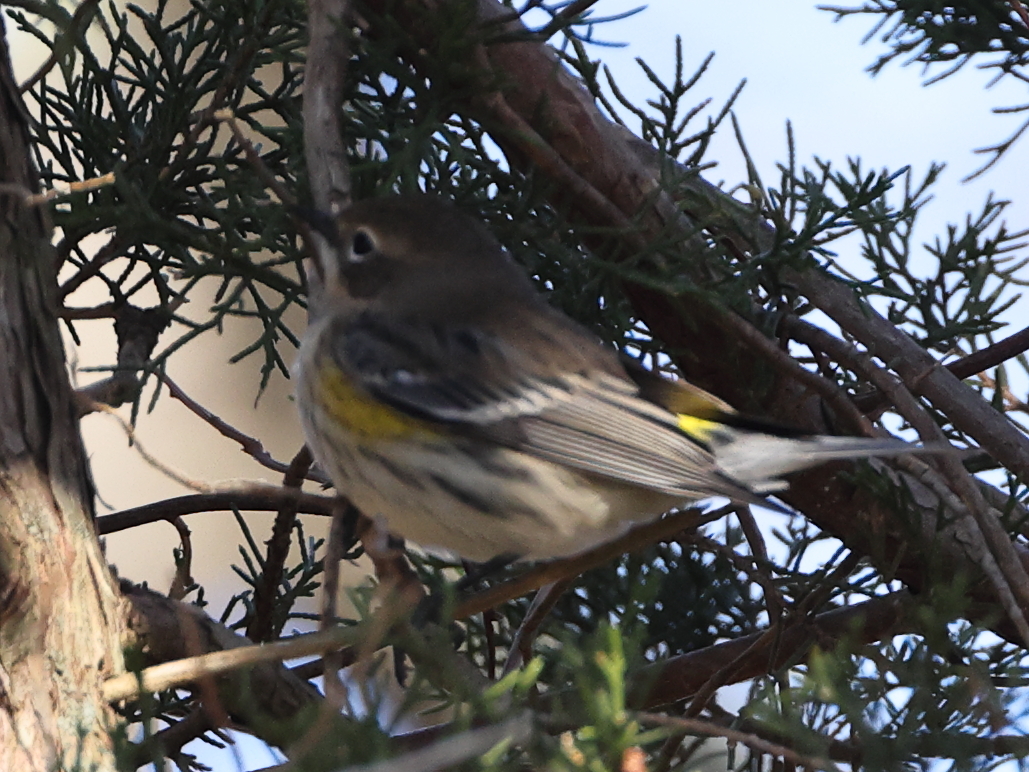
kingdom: Animalia
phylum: Chordata
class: Aves
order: Passeriformes
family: Parulidae
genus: Setophaga
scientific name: Setophaga coronata
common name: Myrtle warbler
